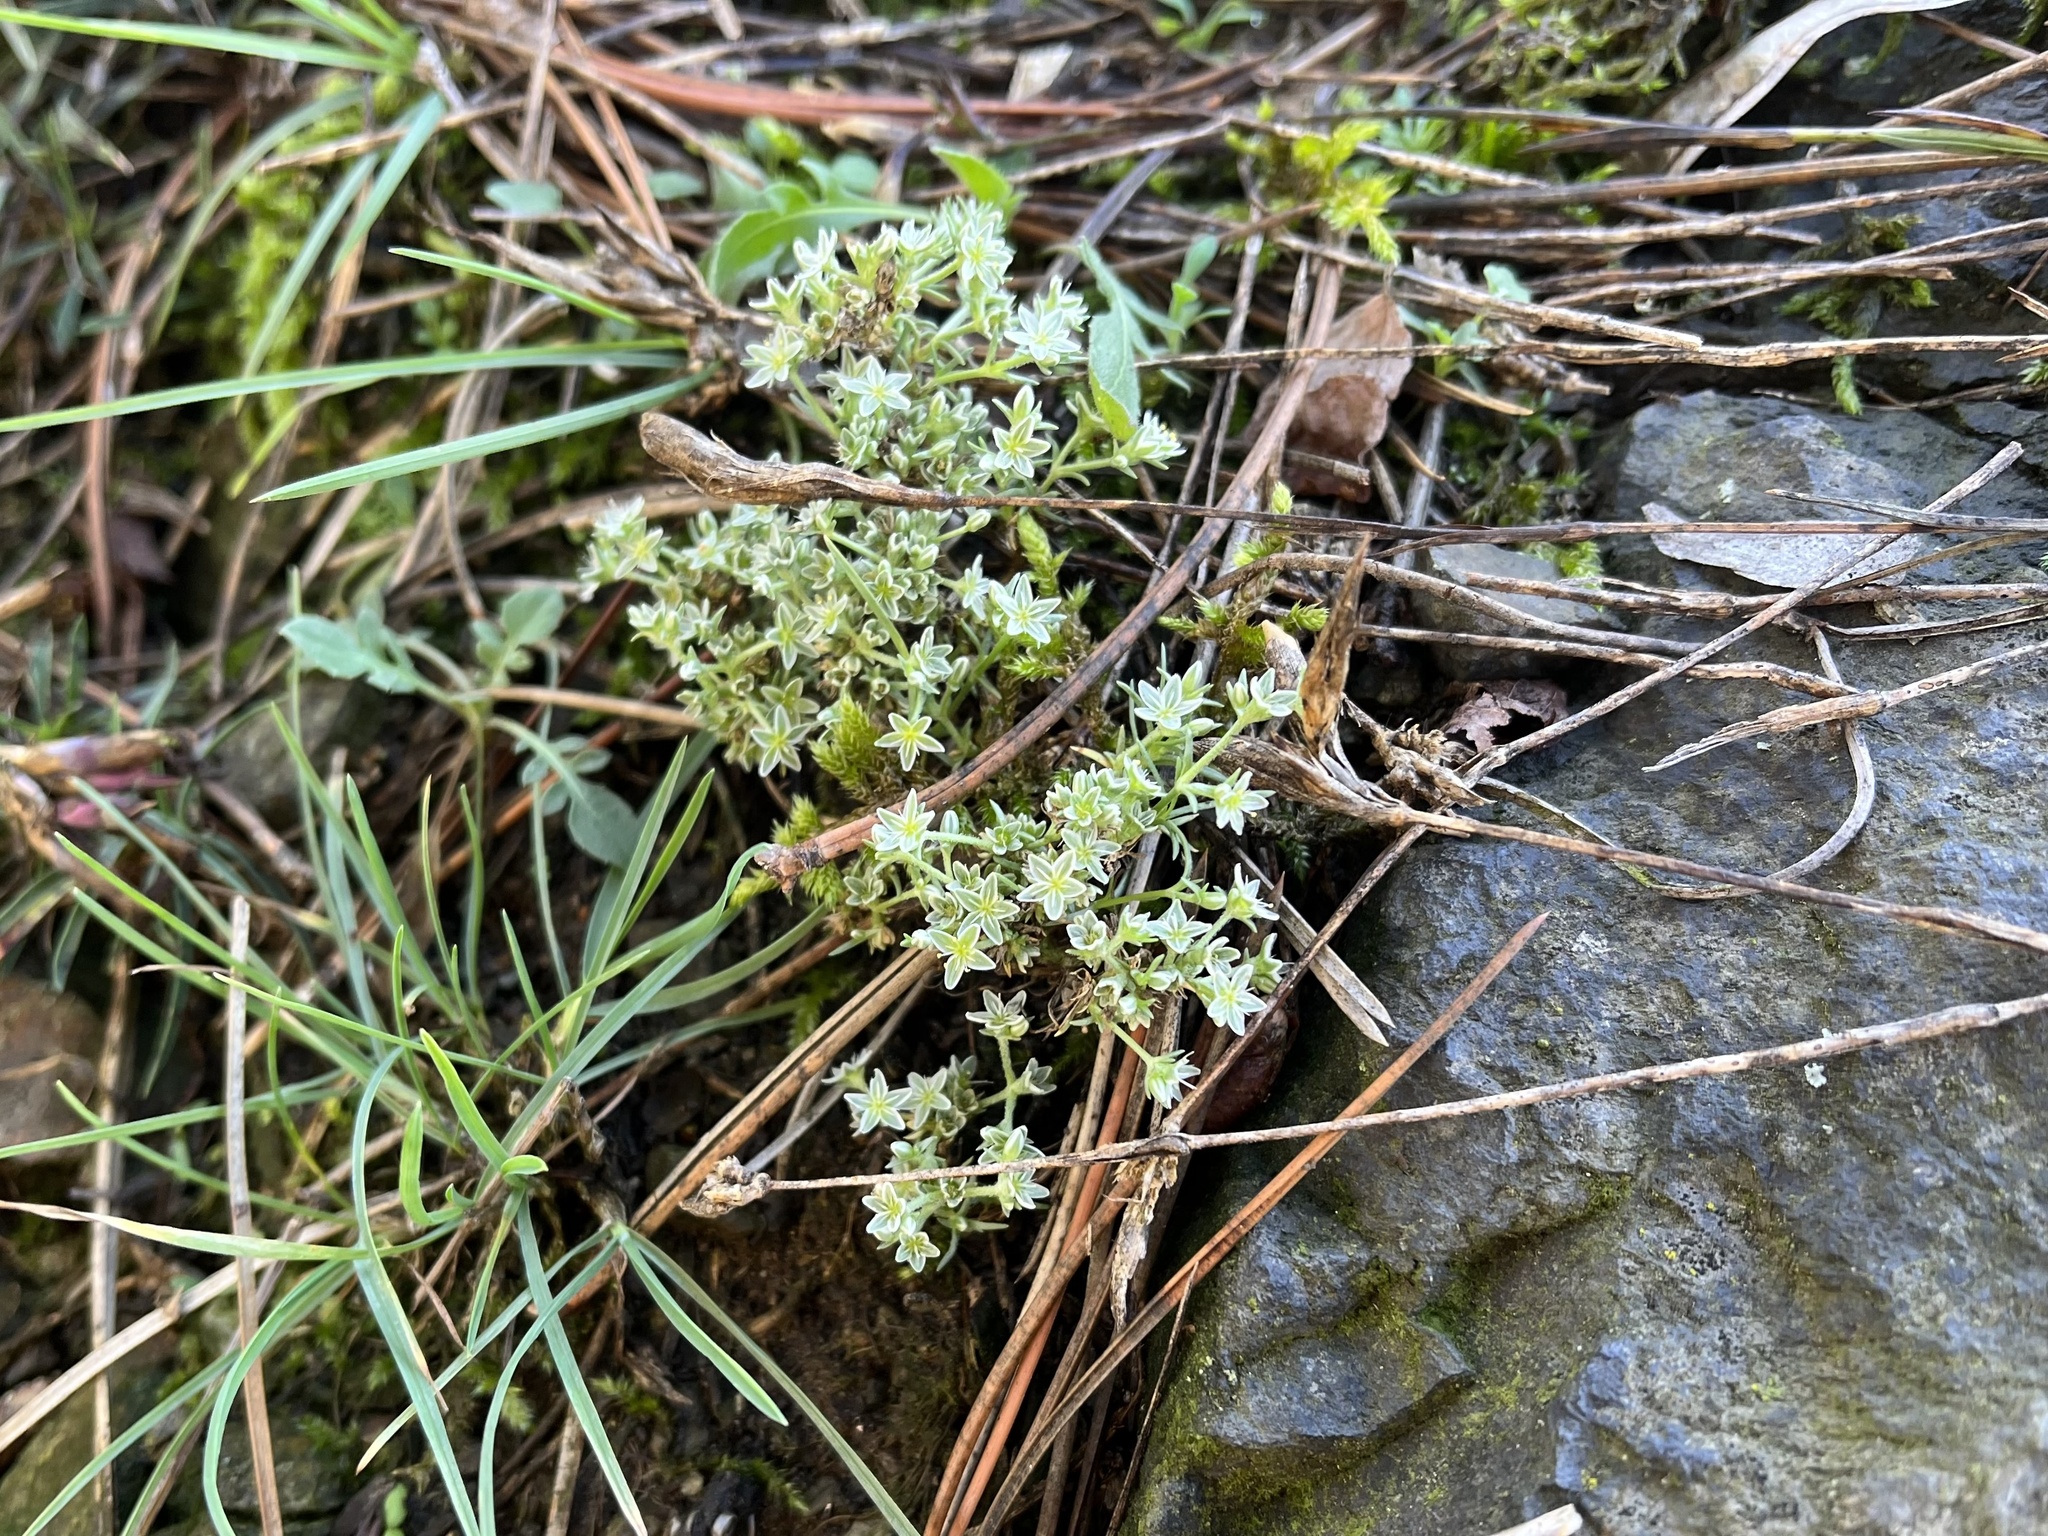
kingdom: Plantae
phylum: Tracheophyta
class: Magnoliopsida
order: Caryophyllales
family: Caryophyllaceae
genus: Scleranthus
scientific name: Scleranthus perennis
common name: Perennial knawel
